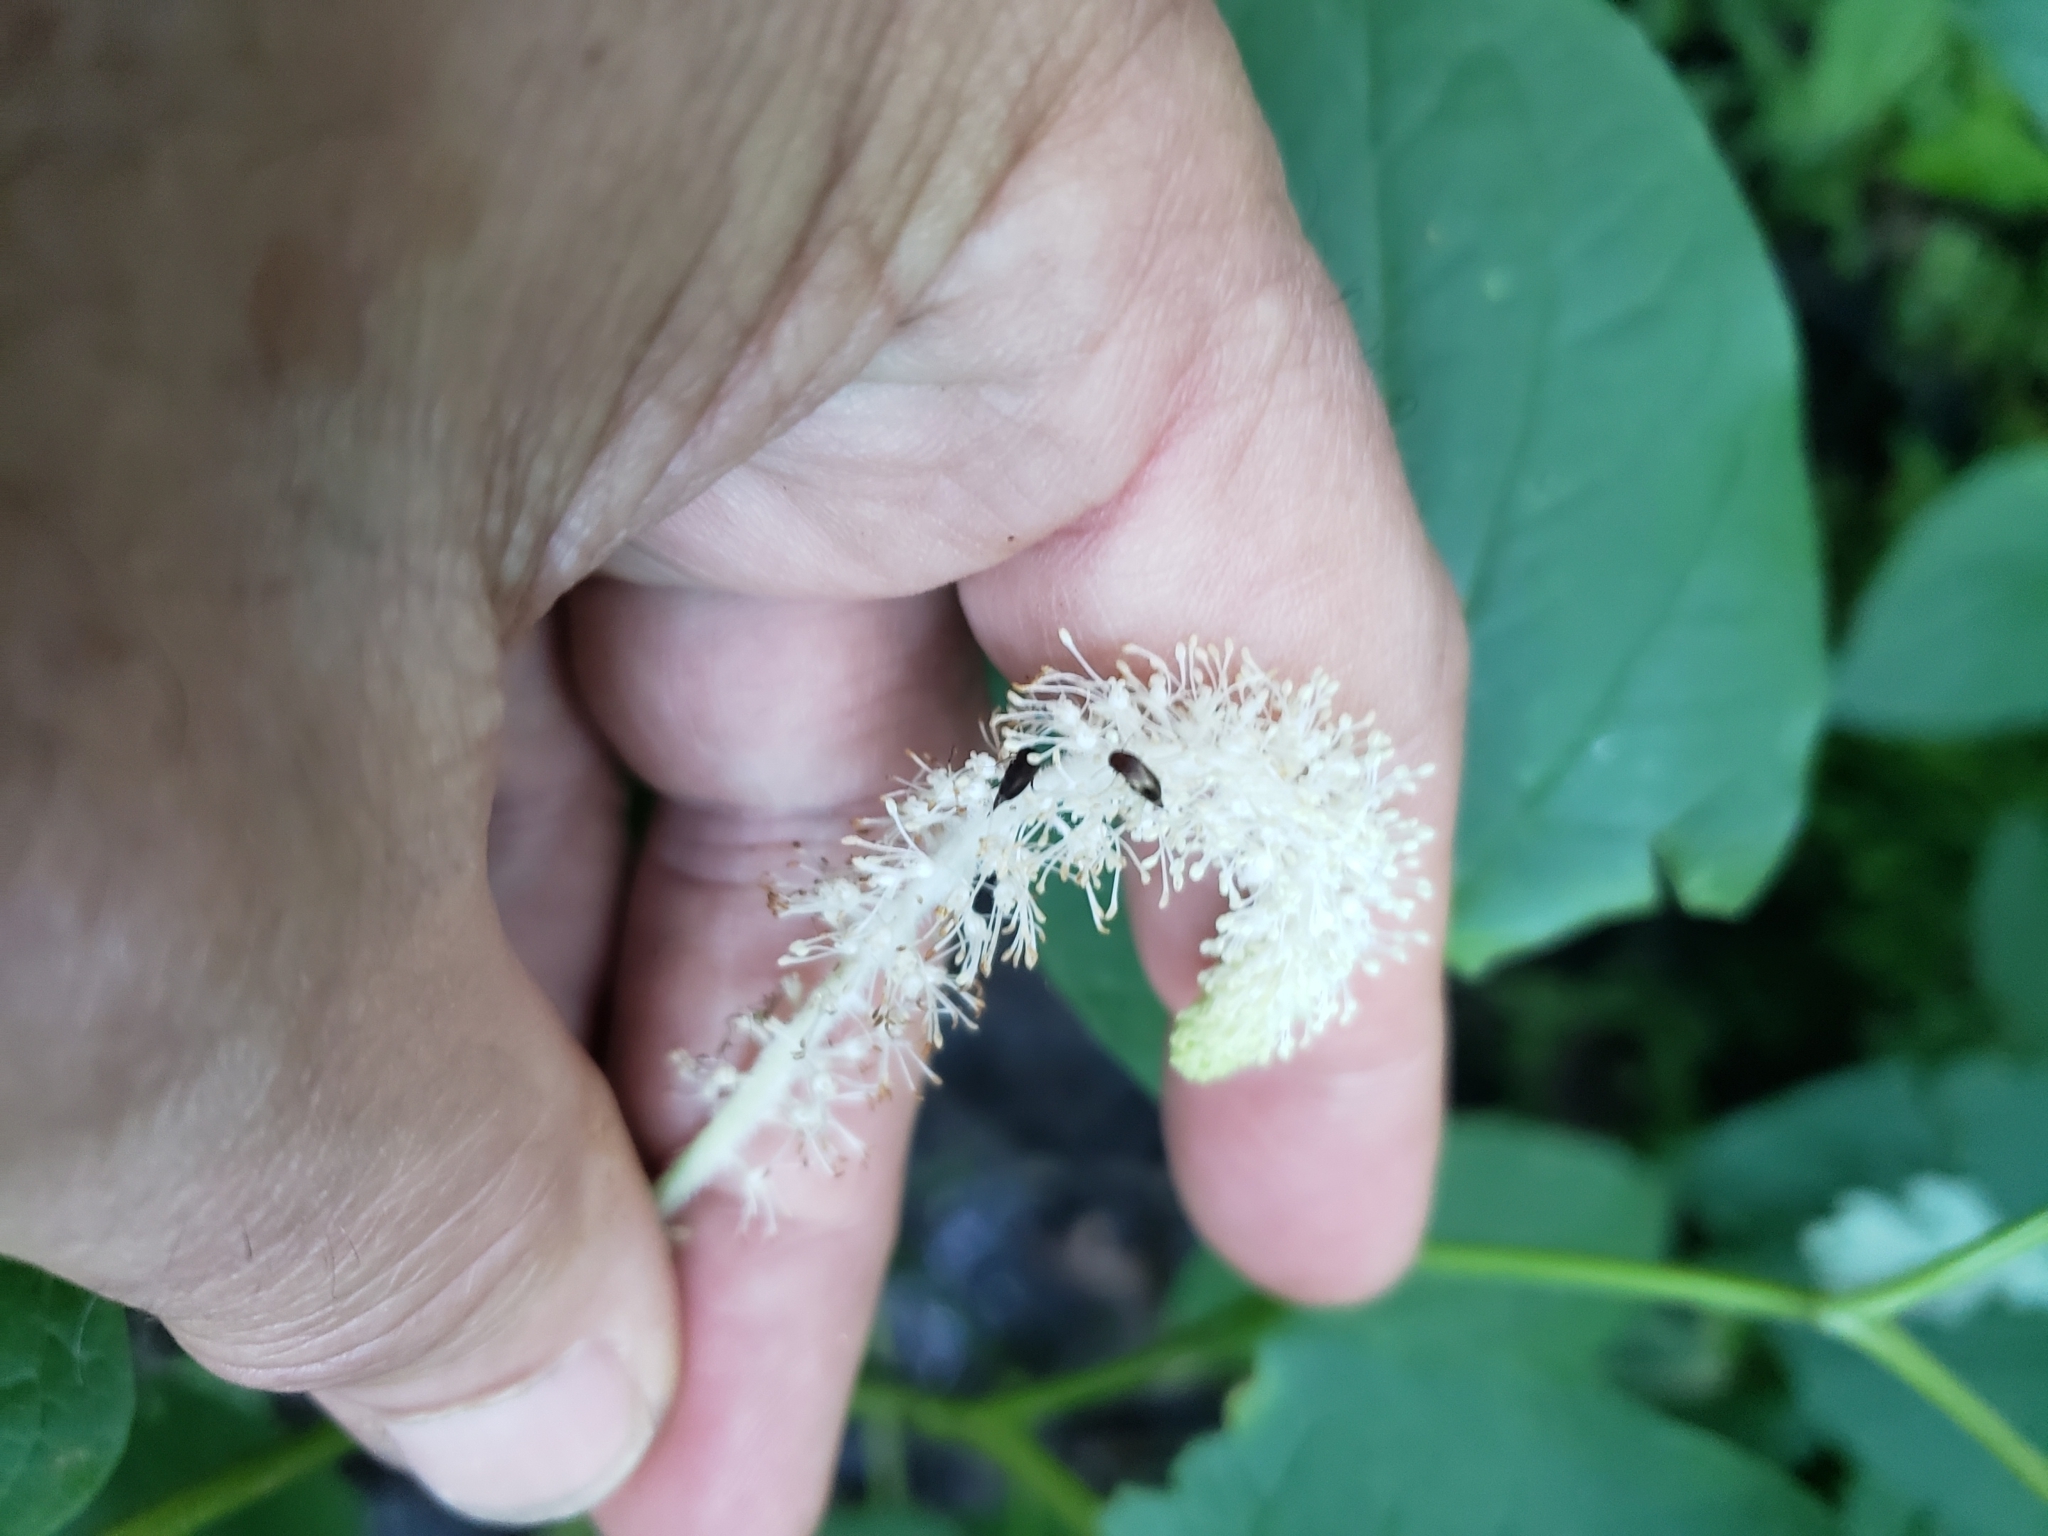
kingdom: Plantae
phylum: Tracheophyta
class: Magnoliopsida
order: Piperales
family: Saururaceae
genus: Saururus
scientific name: Saururus cernuus
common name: Lizard's-tail
